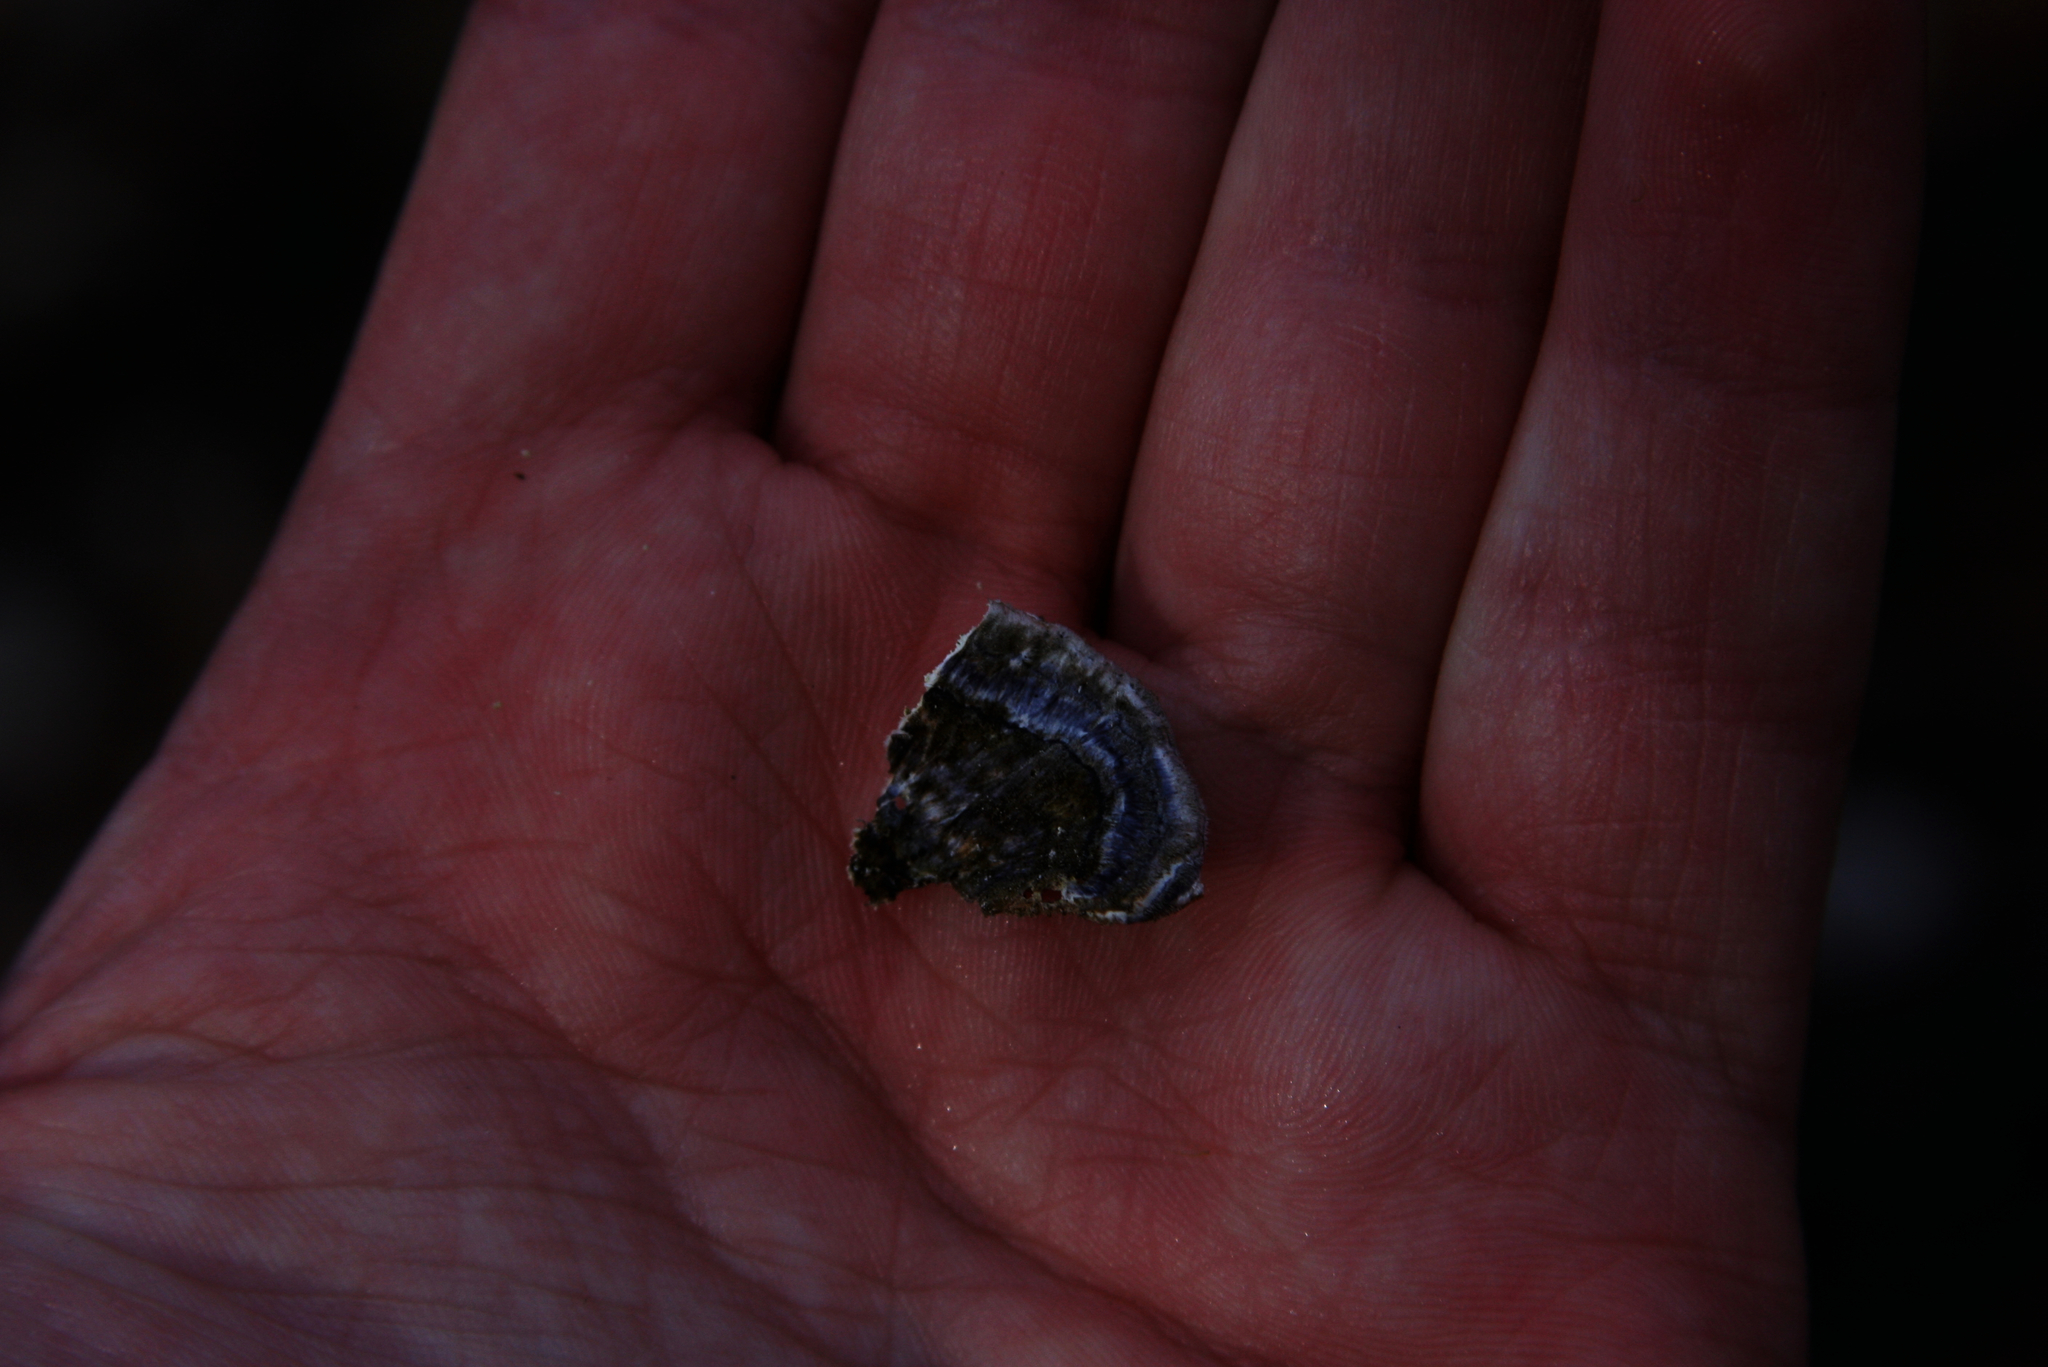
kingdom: Fungi
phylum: Basidiomycota
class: Agaricomycetes
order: Polyporales
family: Polyporaceae
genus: Trametes
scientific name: Trametes versicolor
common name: Turkeytail
